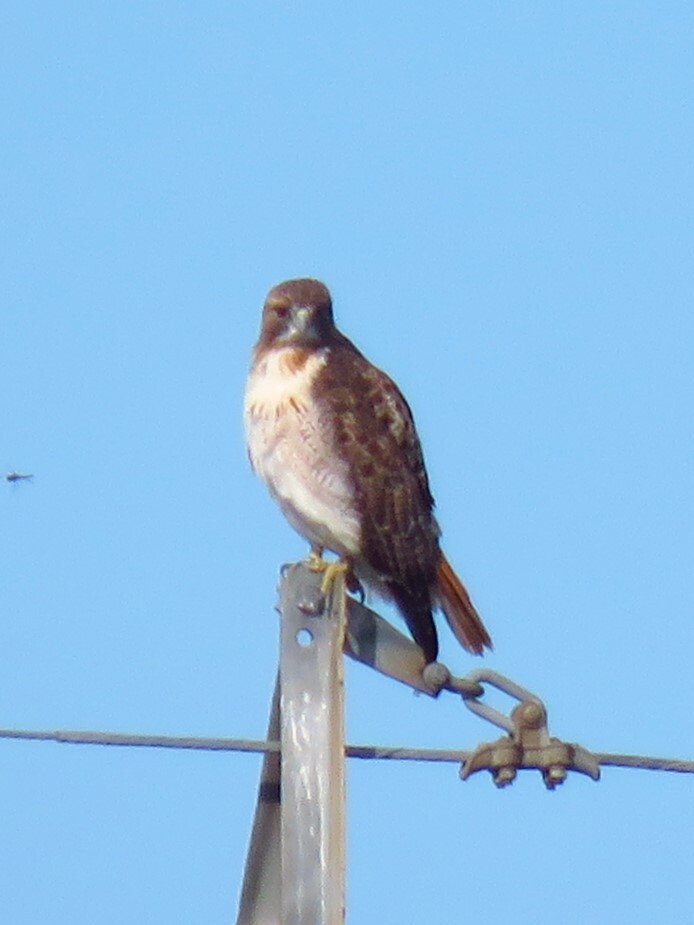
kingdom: Animalia
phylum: Chordata
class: Aves
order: Accipitriformes
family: Accipitridae
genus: Buteo
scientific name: Buteo jamaicensis
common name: Red-tailed hawk
